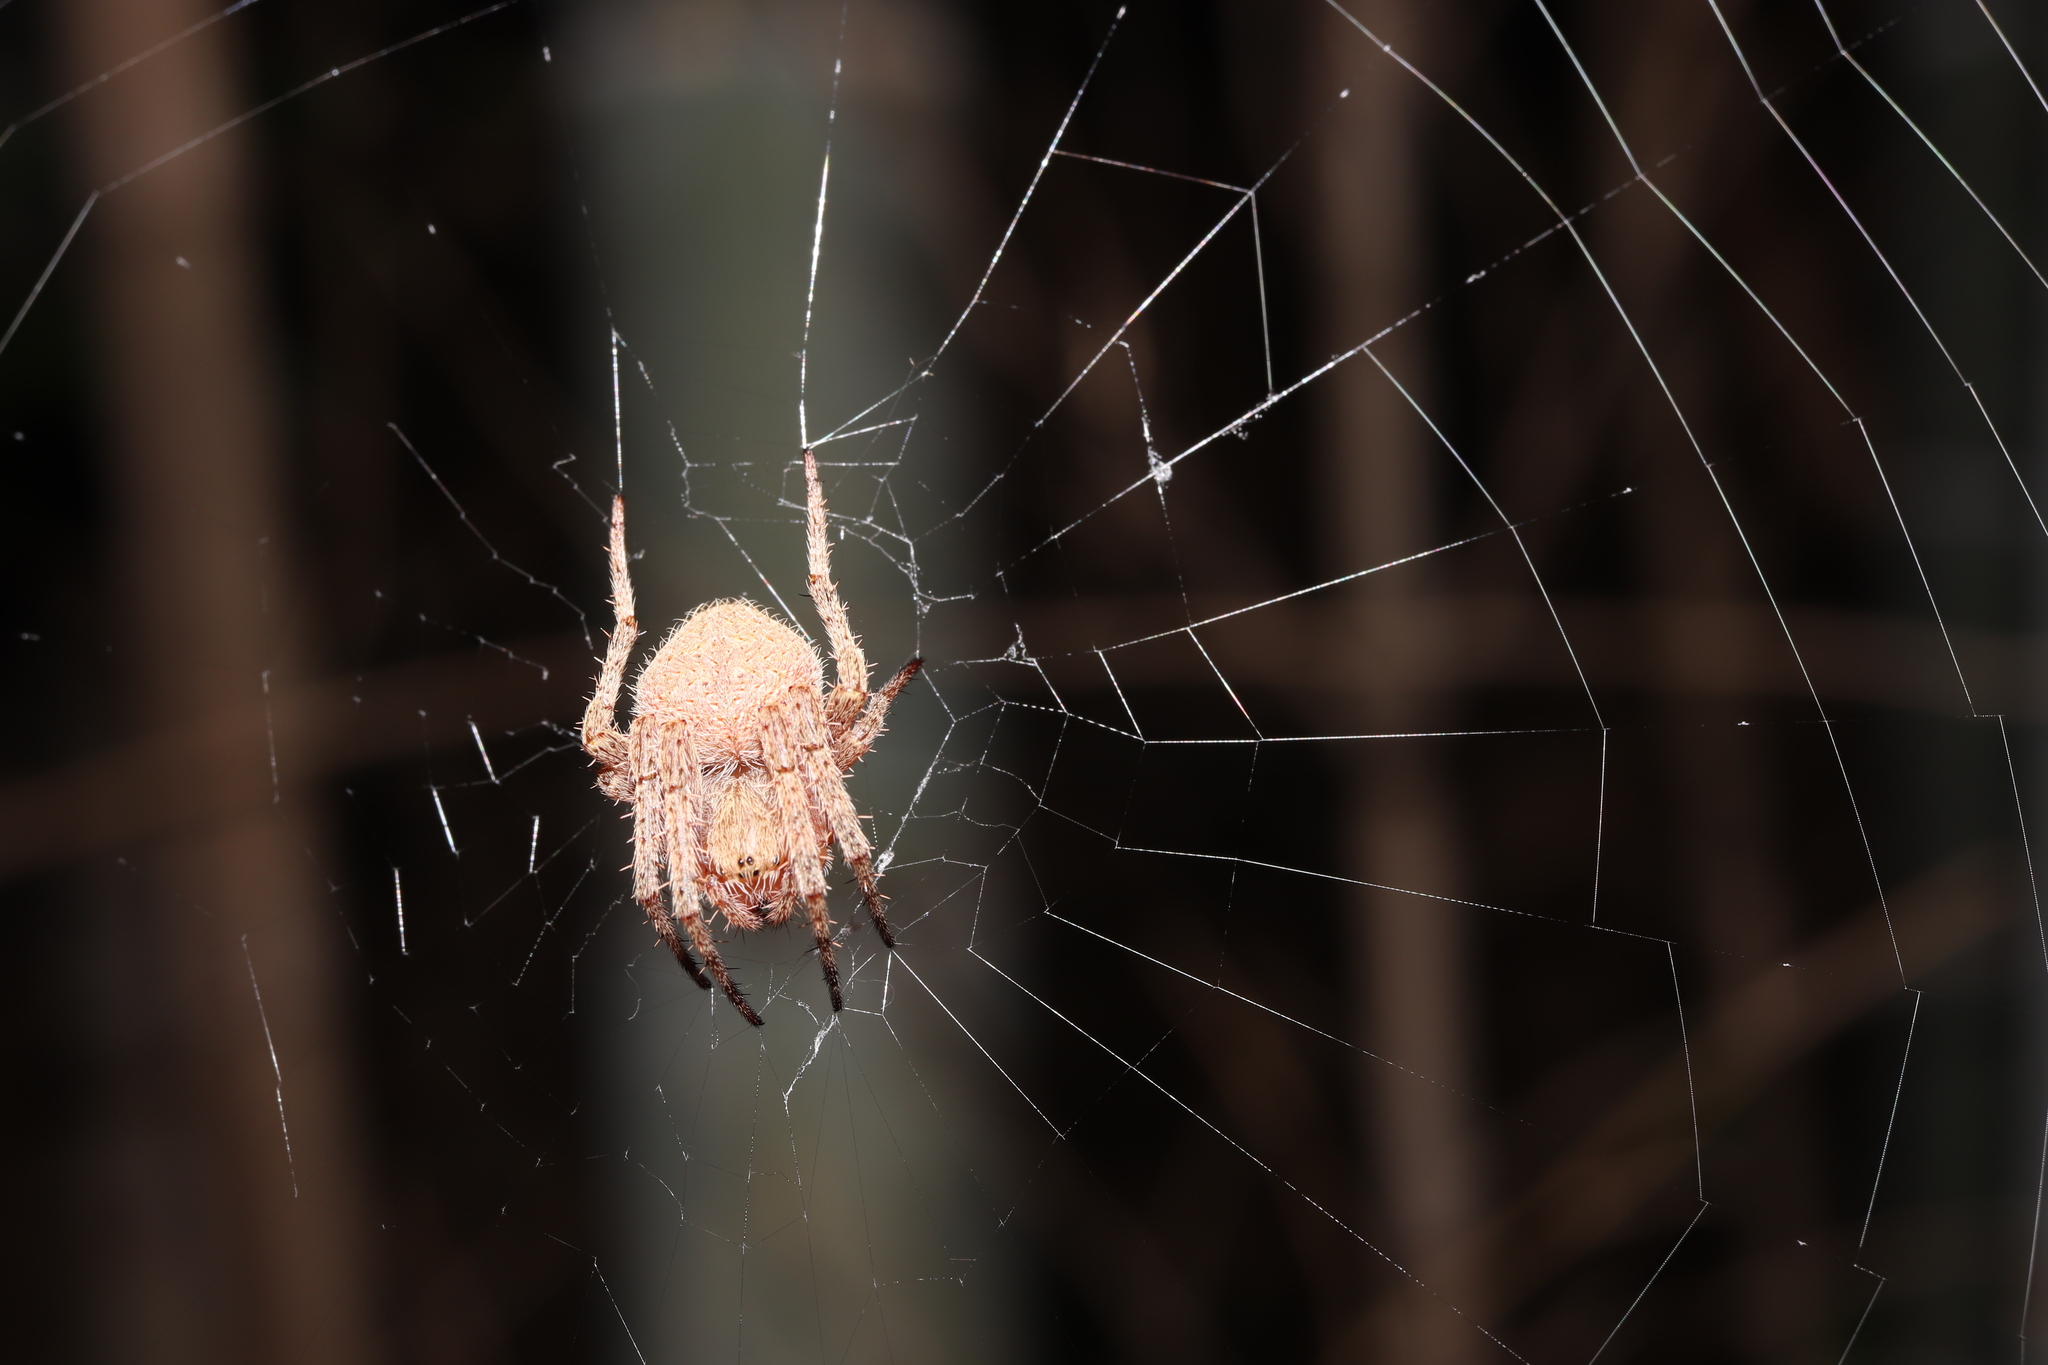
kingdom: Animalia
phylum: Arthropoda
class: Arachnida
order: Araneae
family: Araneidae
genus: Neoscona
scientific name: Neoscona punctigera
